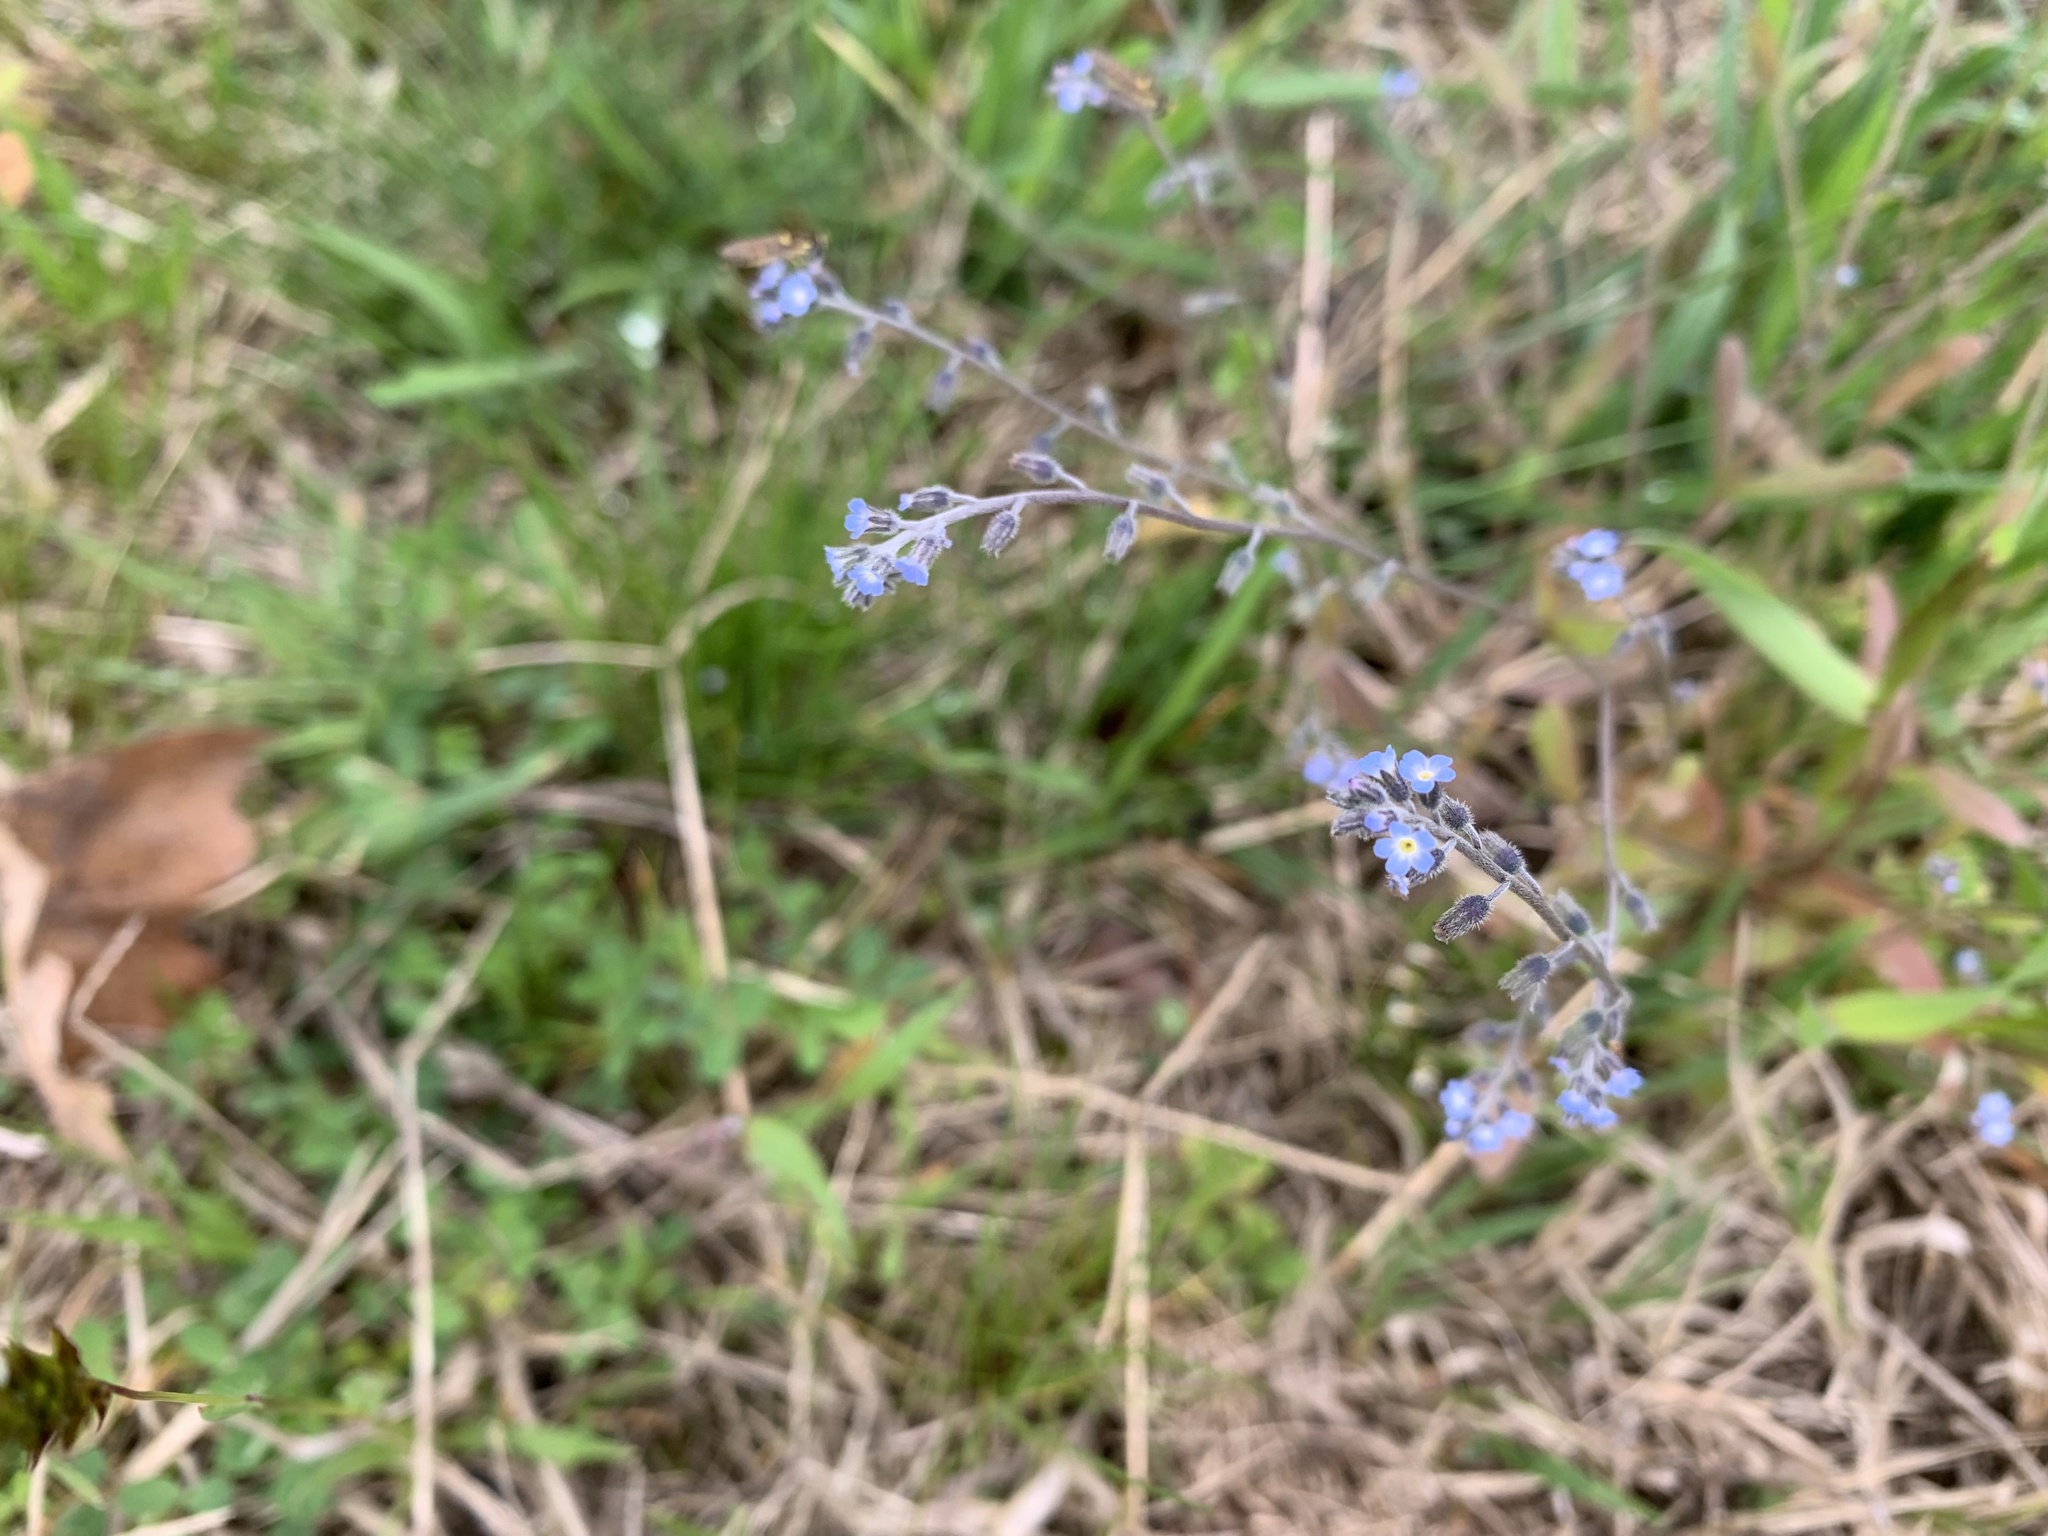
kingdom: Plantae
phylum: Tracheophyta
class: Magnoliopsida
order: Boraginales
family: Boraginaceae
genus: Myosotis
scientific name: Myosotis ramosissima
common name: Early forget-me-not
